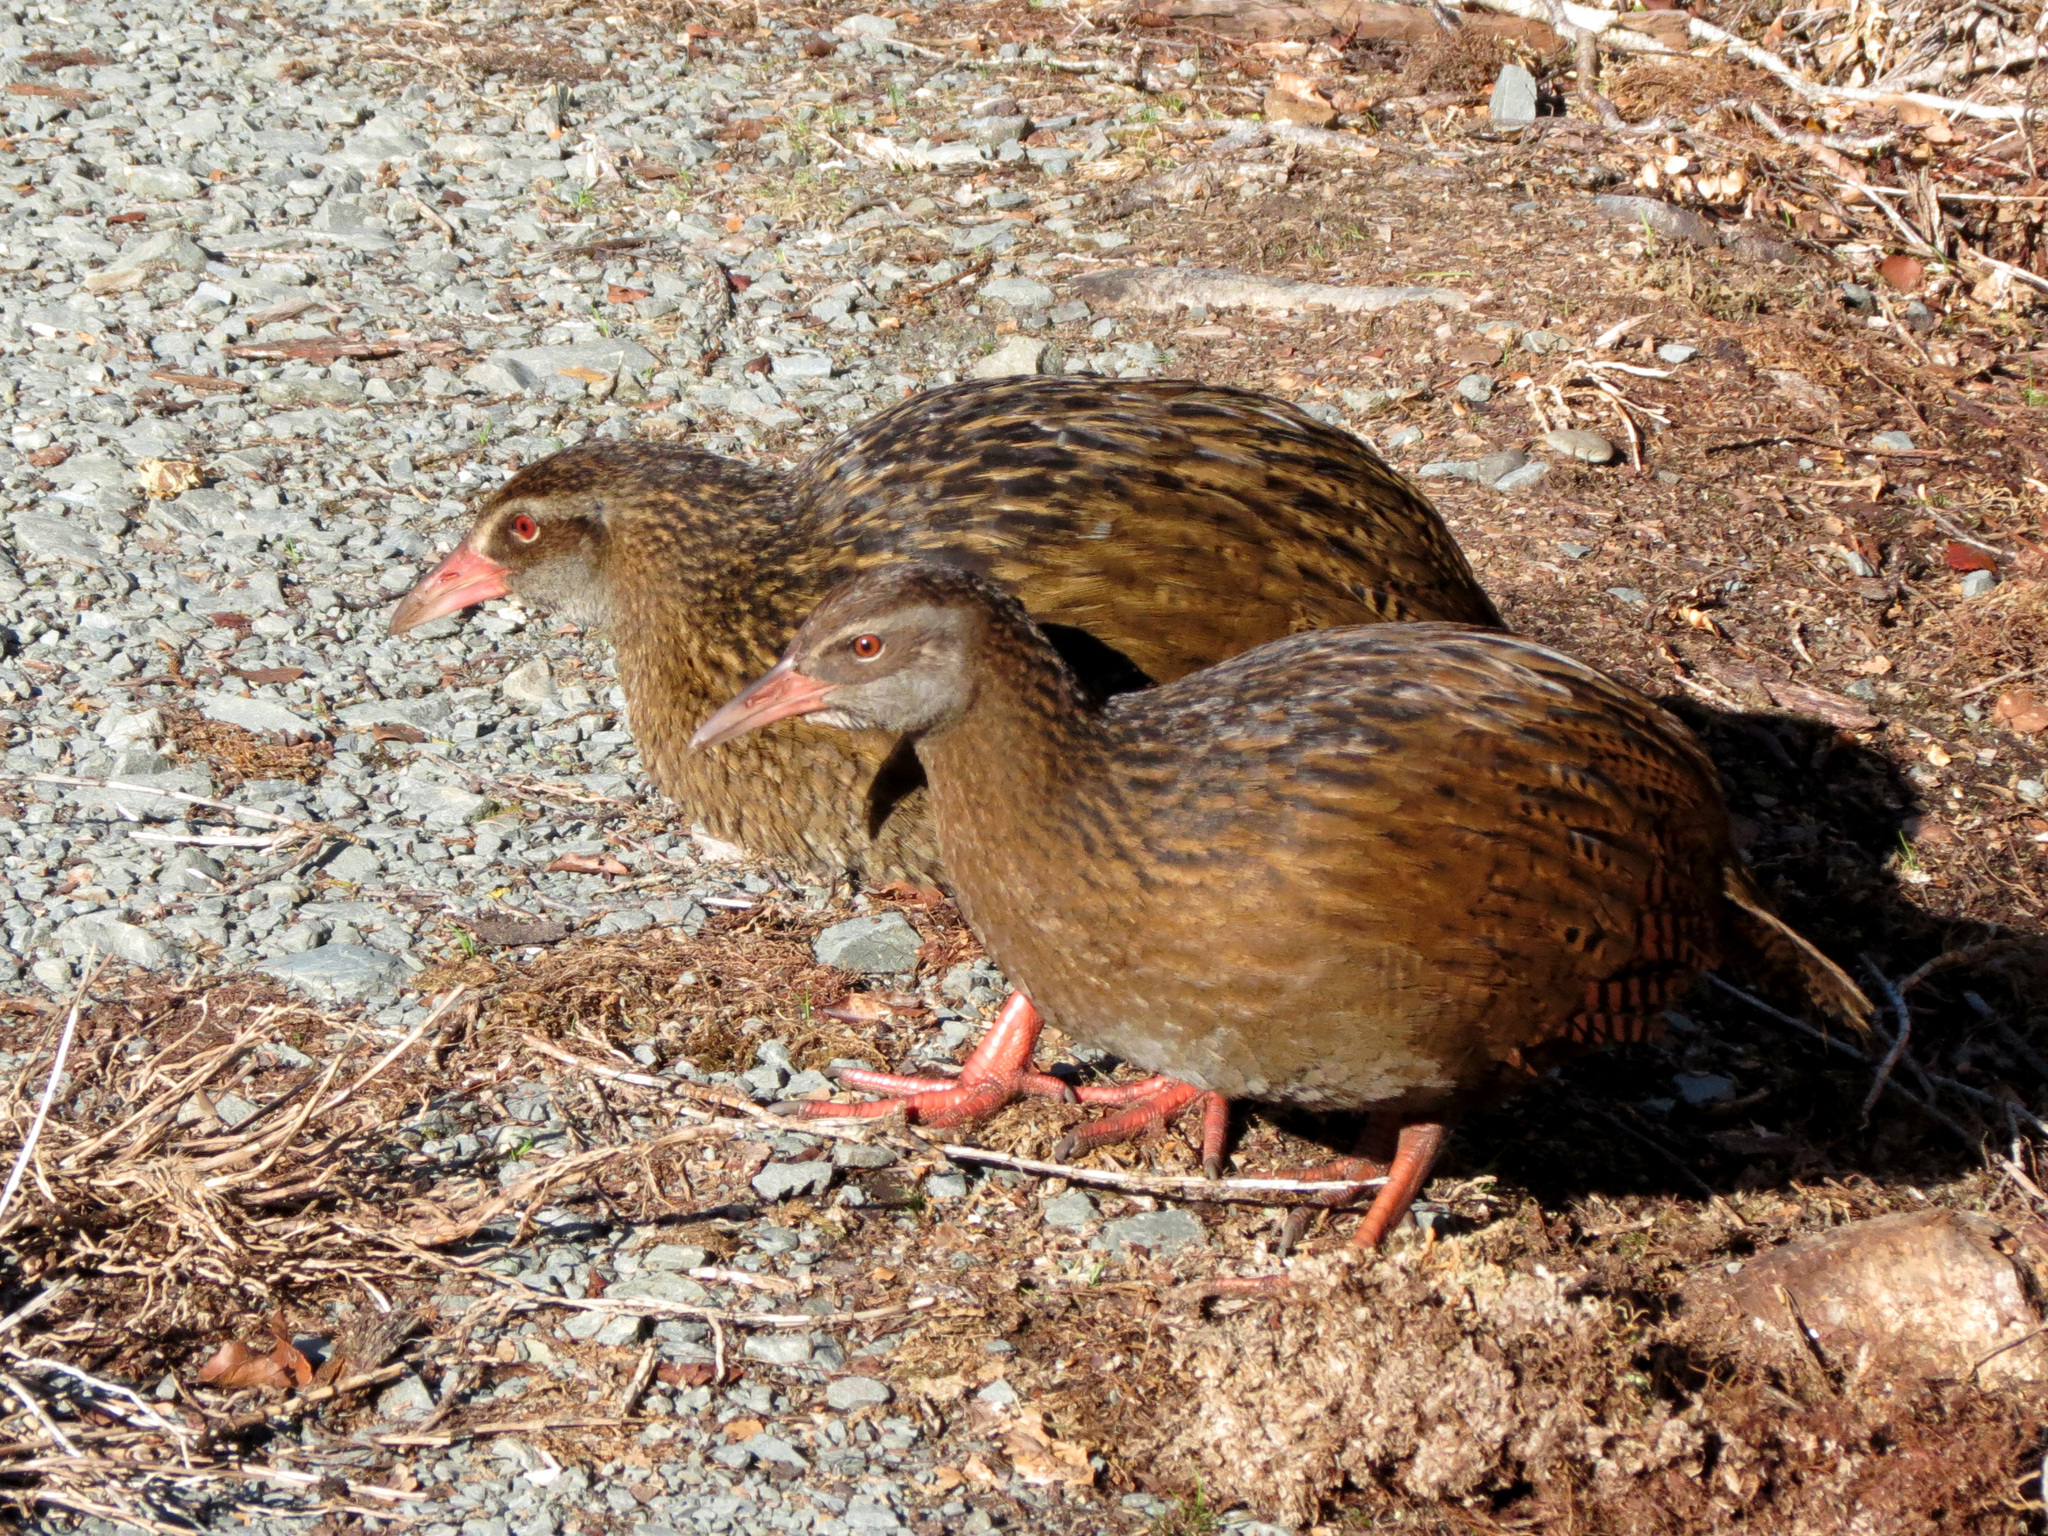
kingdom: Animalia
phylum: Chordata
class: Aves
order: Gruiformes
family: Rallidae
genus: Gallirallus
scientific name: Gallirallus australis
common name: Weka
